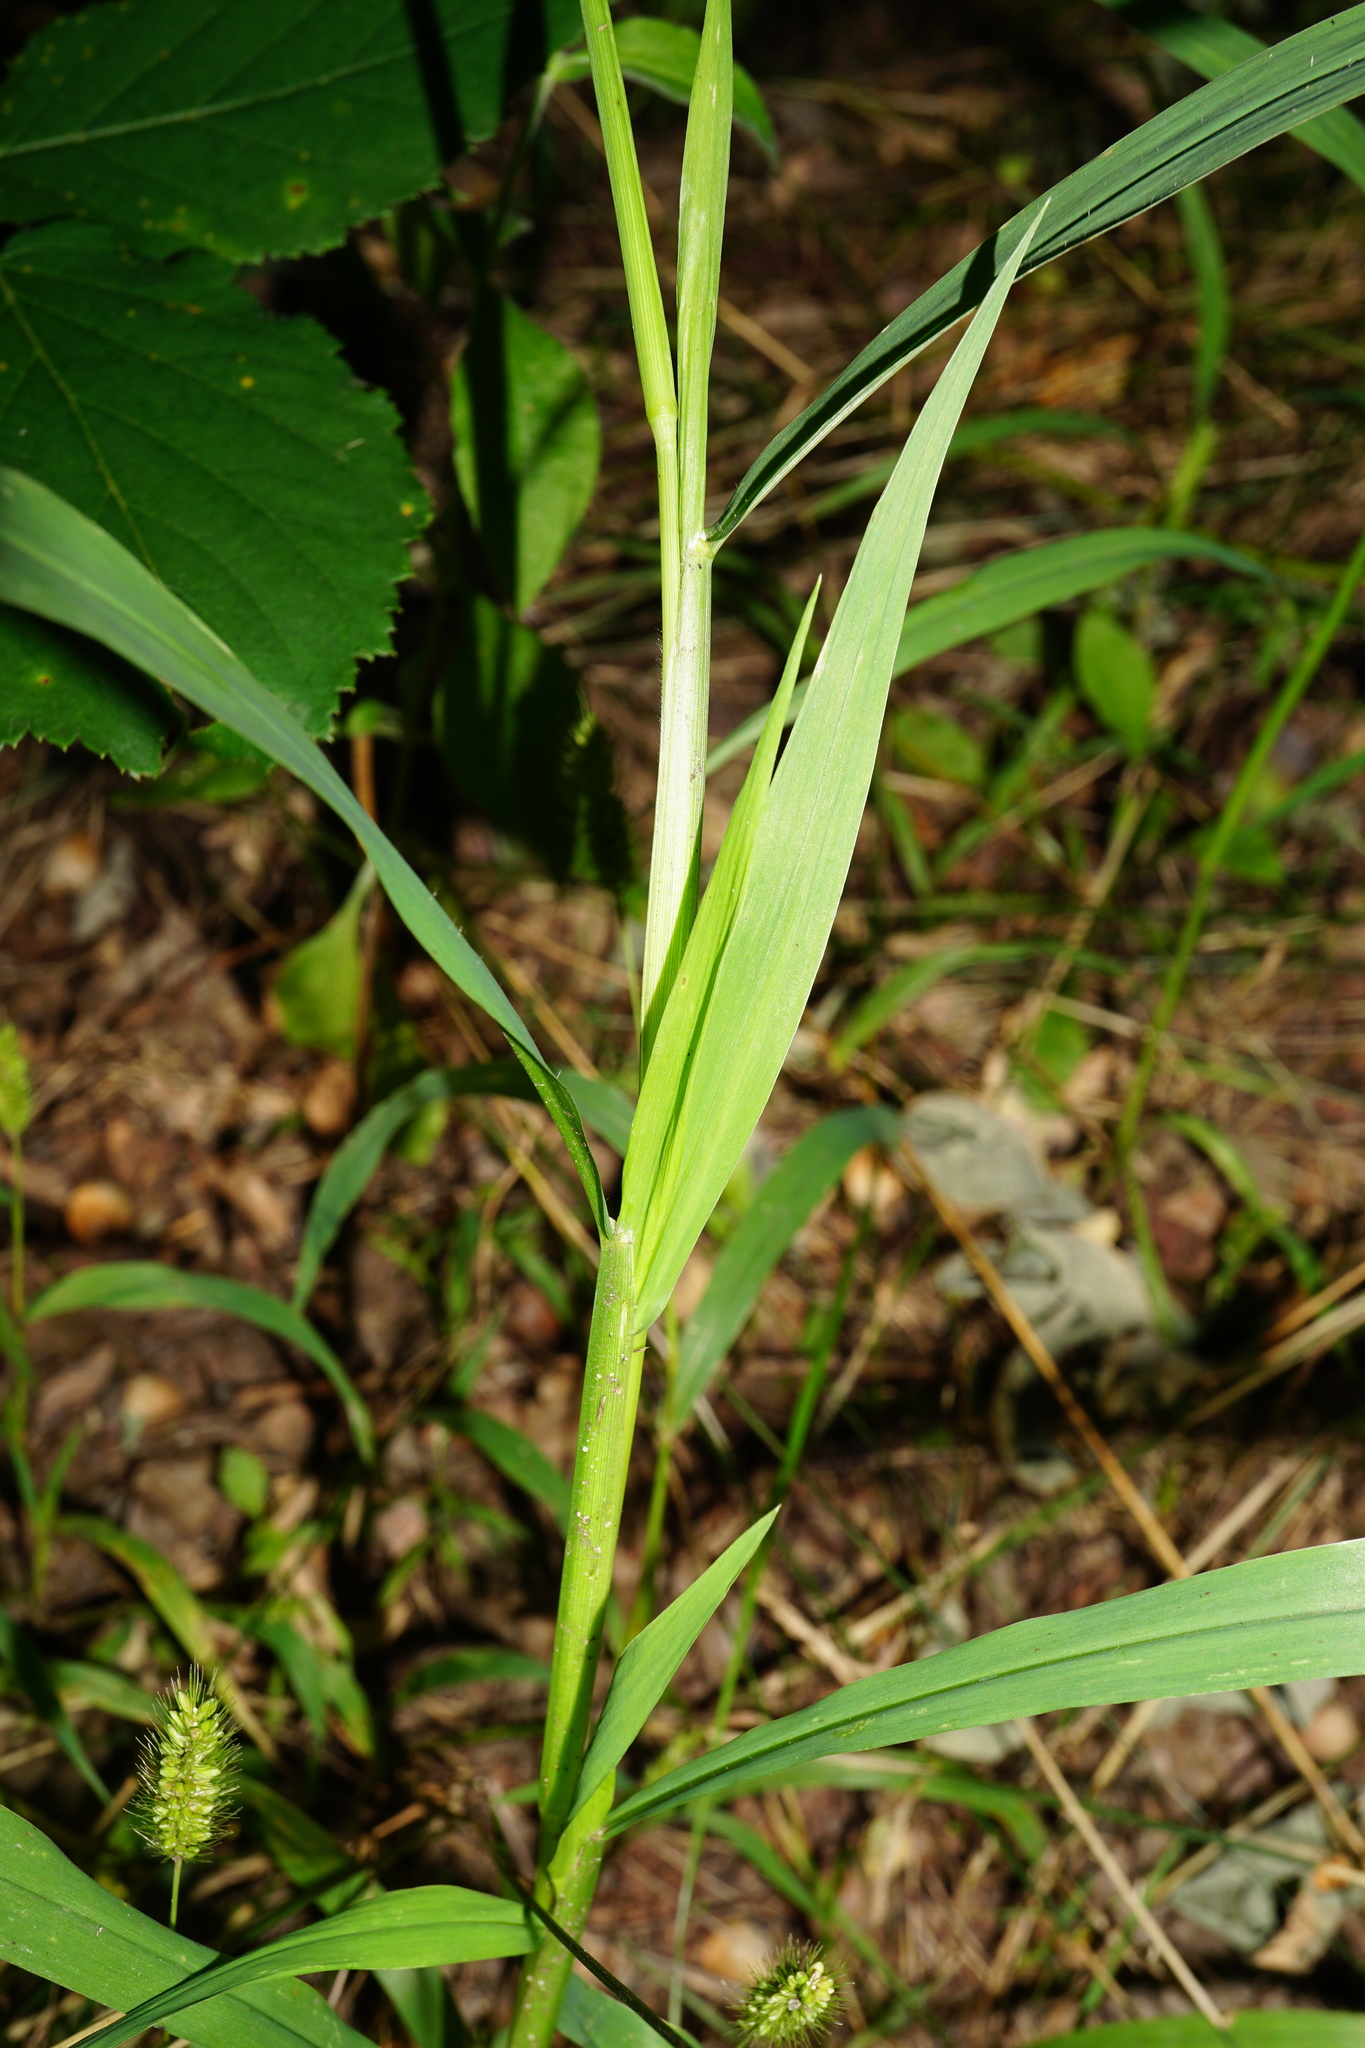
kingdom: Plantae
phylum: Tracheophyta
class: Liliopsida
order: Poales
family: Poaceae
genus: Setaria
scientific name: Setaria verticillata
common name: Hooked bristlegrass
